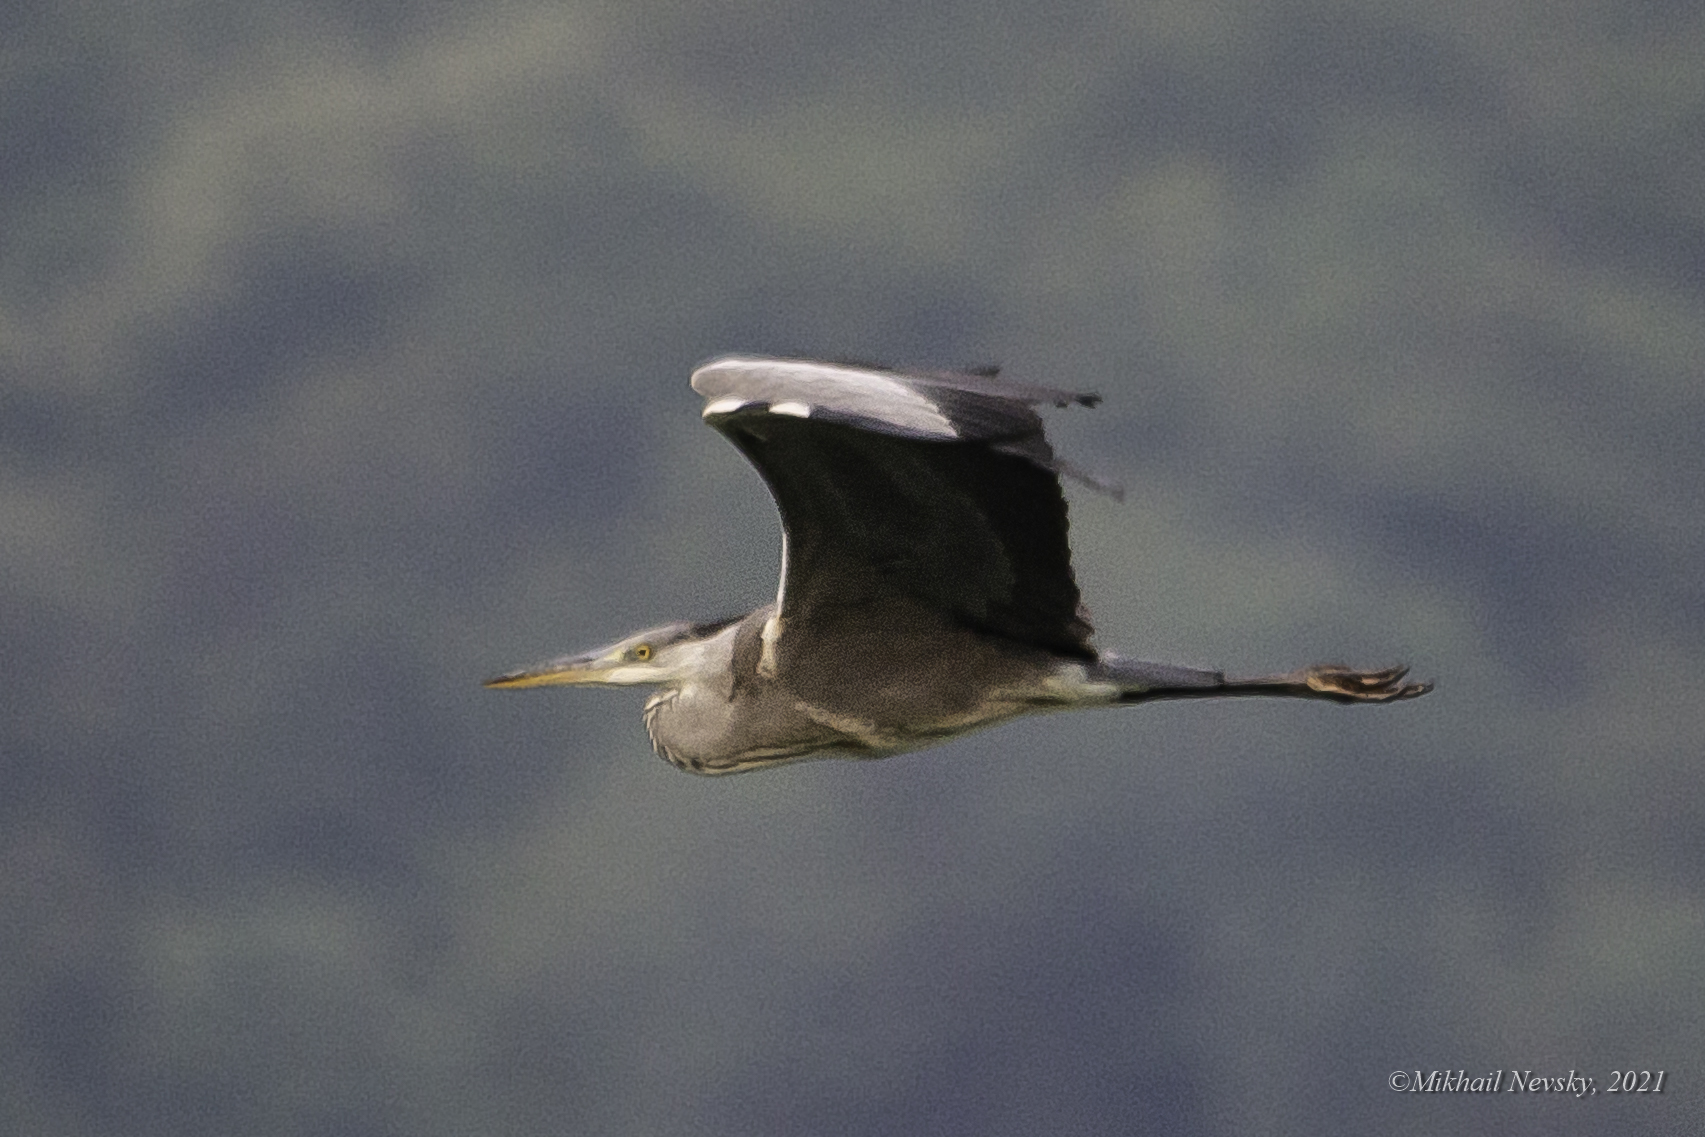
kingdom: Animalia
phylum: Chordata
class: Aves
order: Pelecaniformes
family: Ardeidae
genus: Ardea
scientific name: Ardea cinerea
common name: Grey heron
